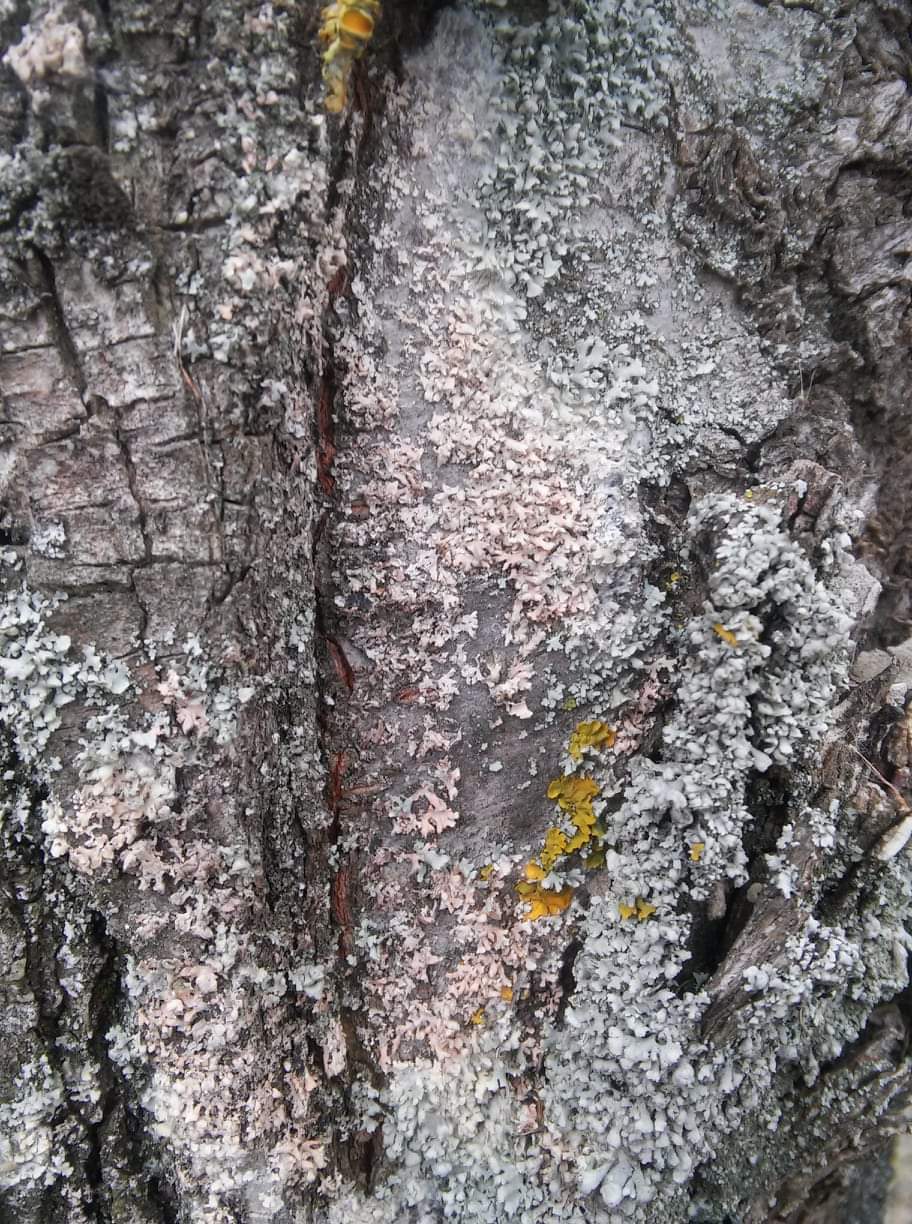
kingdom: Fungi
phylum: Basidiomycota
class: Agaricomycetes
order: Atheliales
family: Atheliaceae
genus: Athelia
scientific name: Athelia arachnoidea
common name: Candelabra duster
